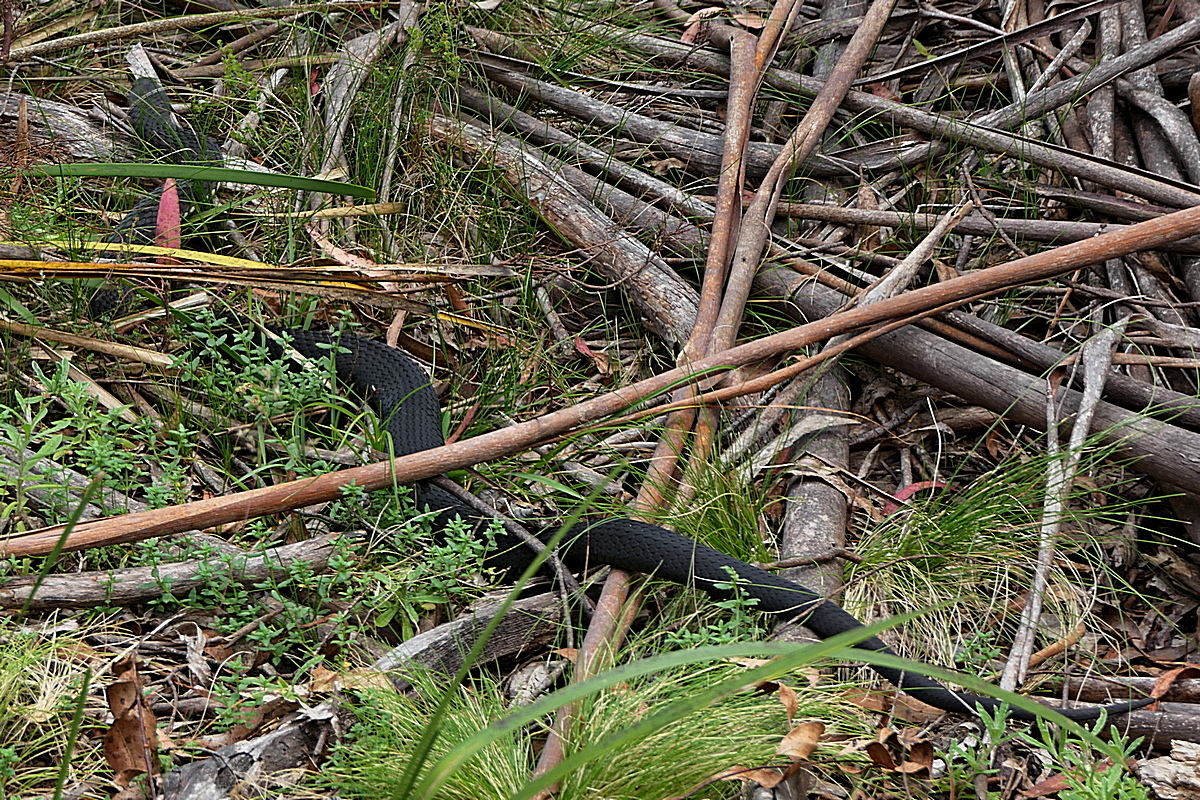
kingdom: Animalia
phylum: Chordata
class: Squamata
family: Elapidae
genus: Austrelaps
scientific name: Austrelaps ramsayi
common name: Highlands copperhead
